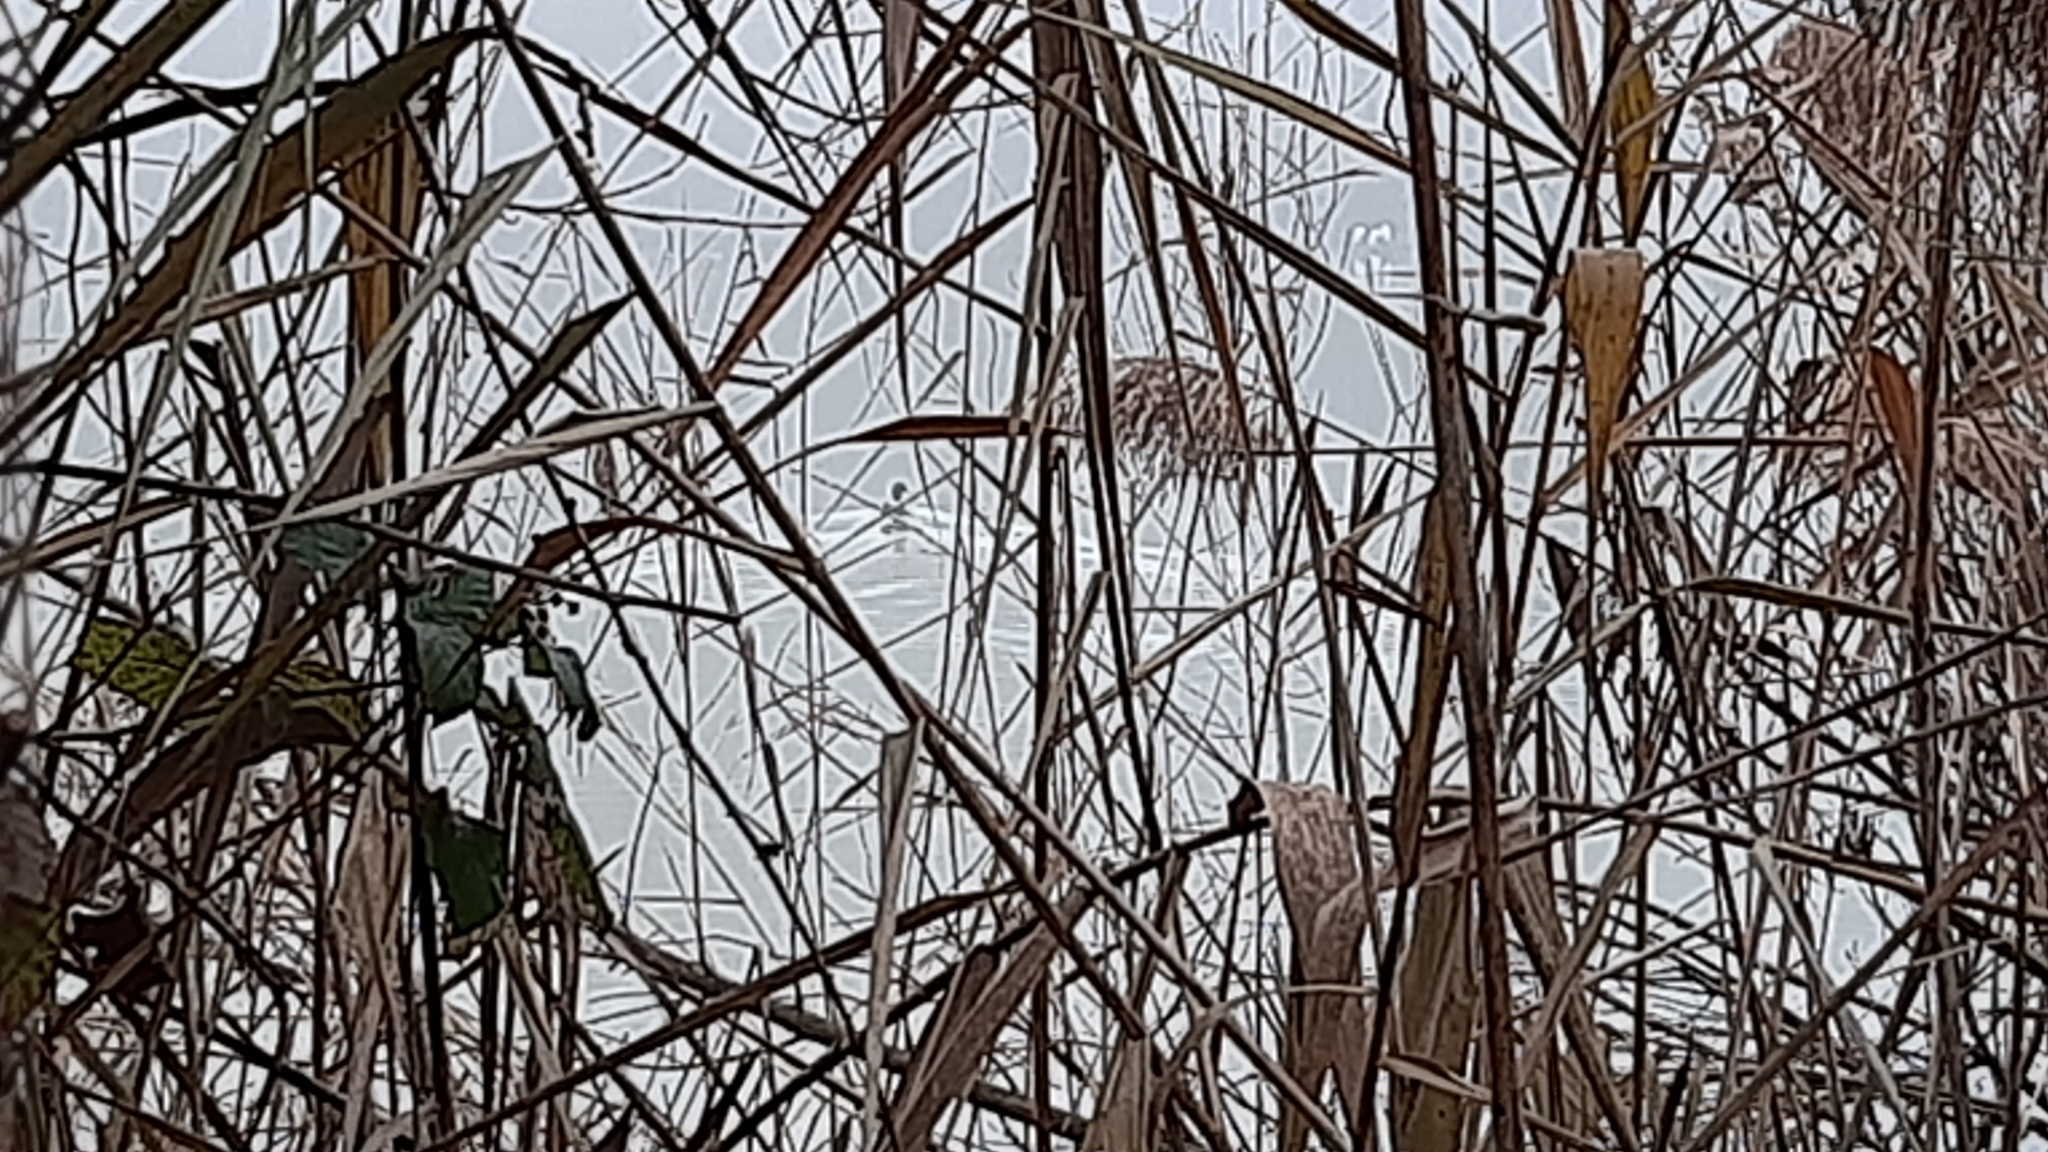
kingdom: Animalia
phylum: Chordata
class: Aves
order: Anseriformes
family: Anatidae
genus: Anas
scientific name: Anas platyrhynchos
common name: Mallard
